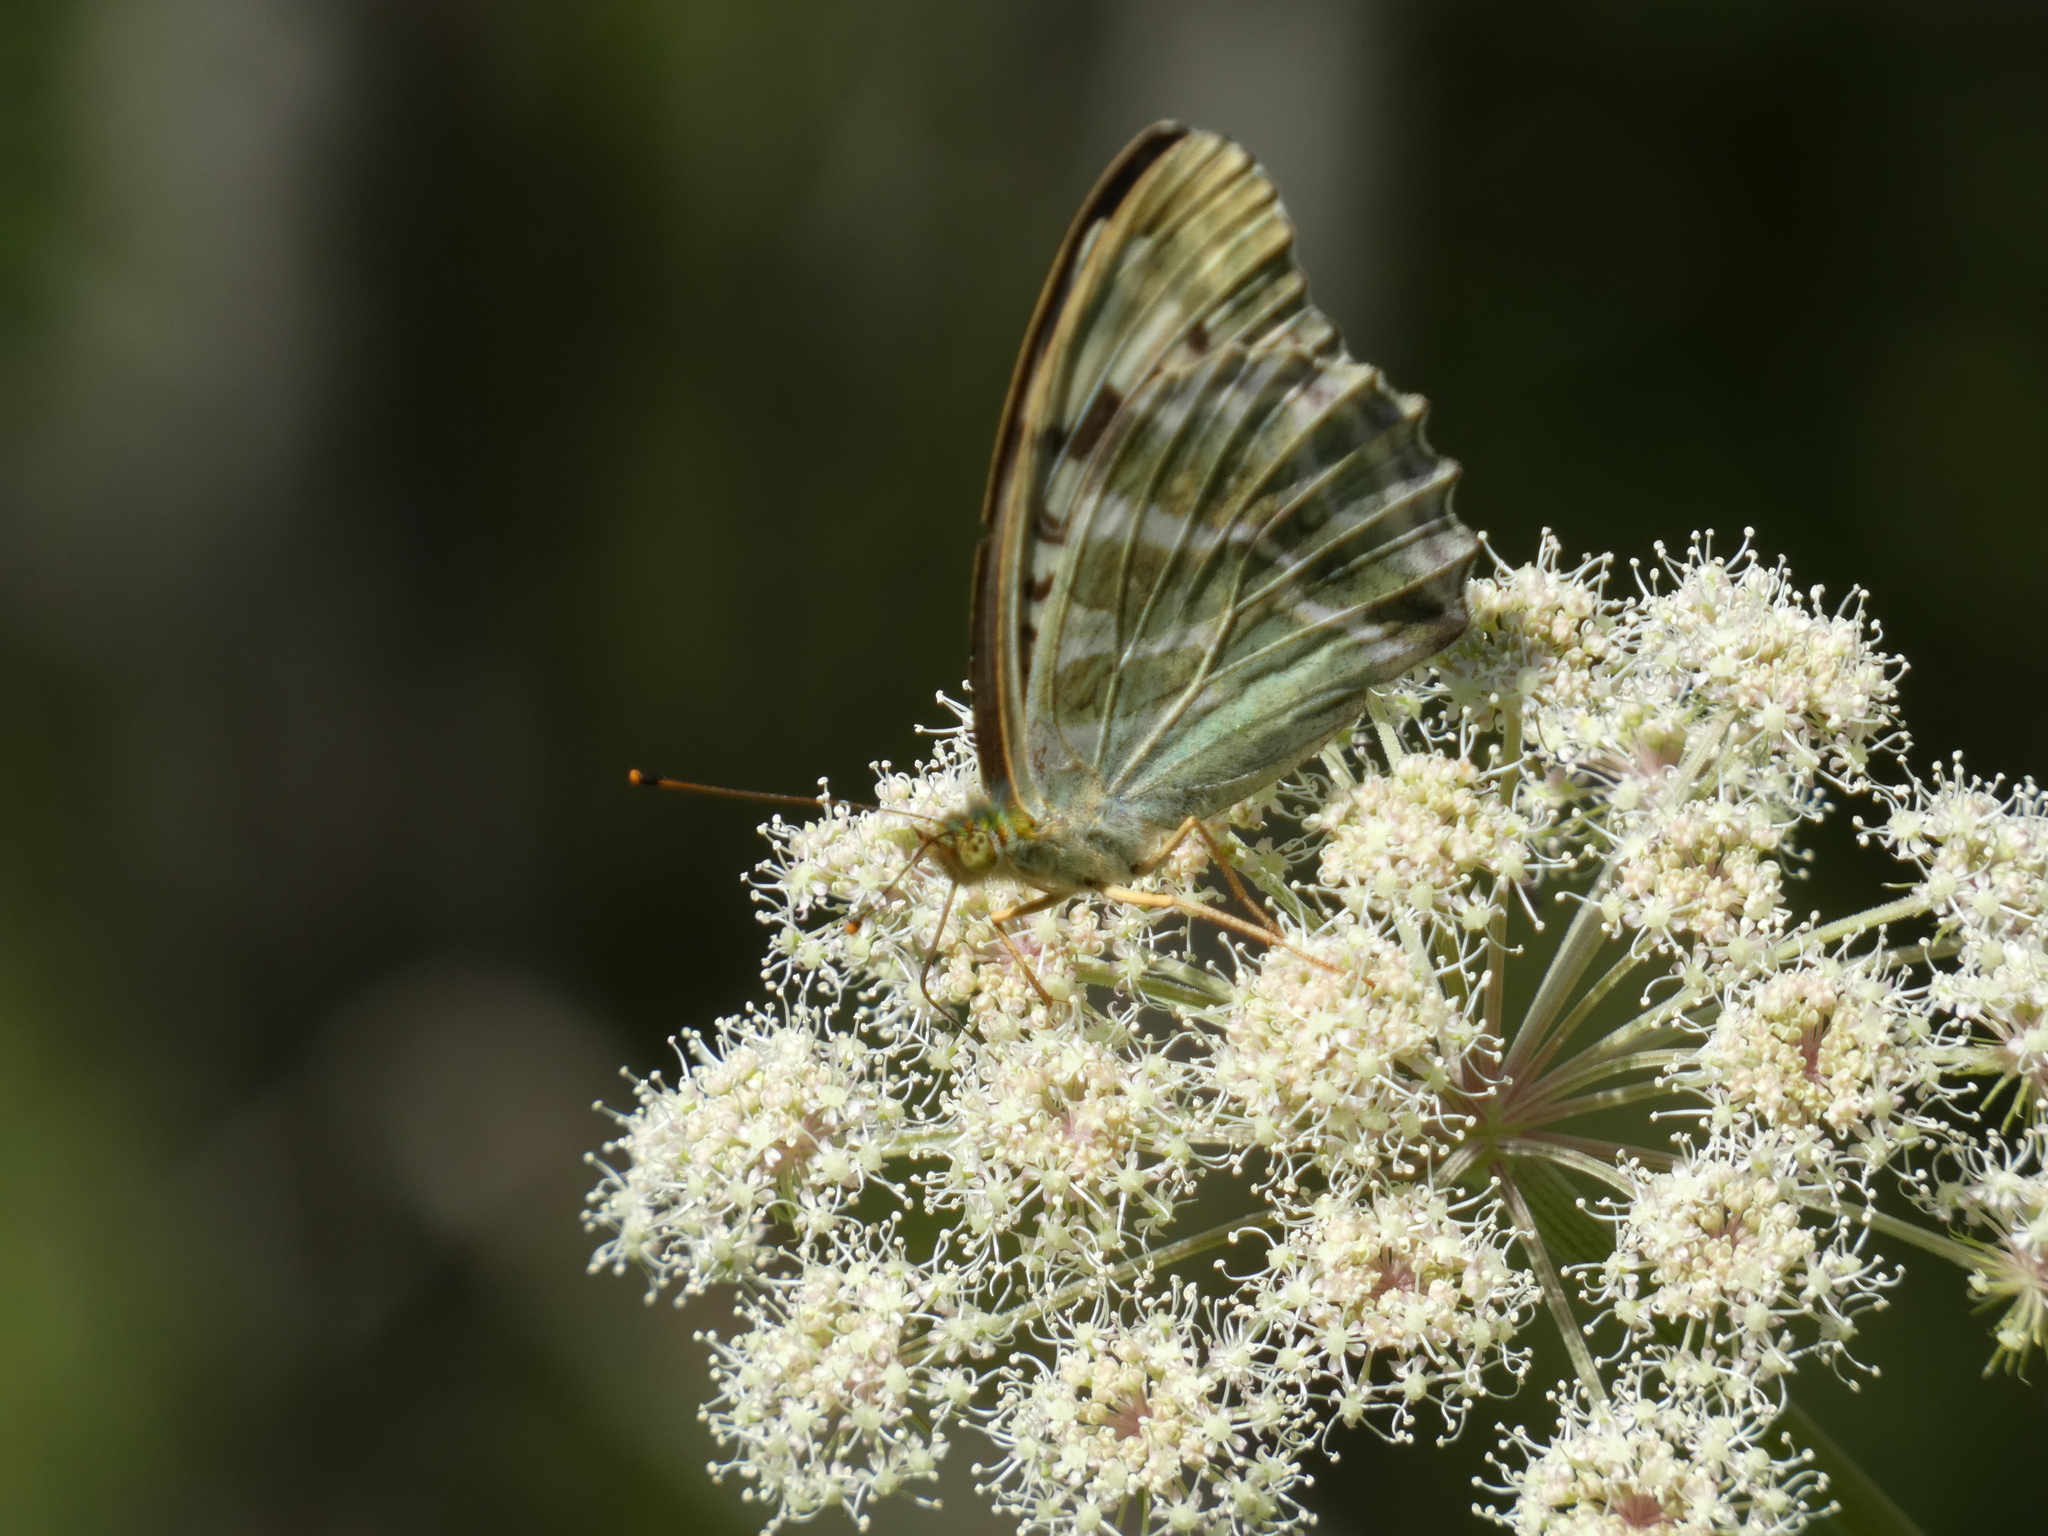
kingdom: Animalia
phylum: Arthropoda
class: Insecta
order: Lepidoptera
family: Nymphalidae
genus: Argynnis
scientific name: Argynnis paphia
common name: Silver-washed fritillary
